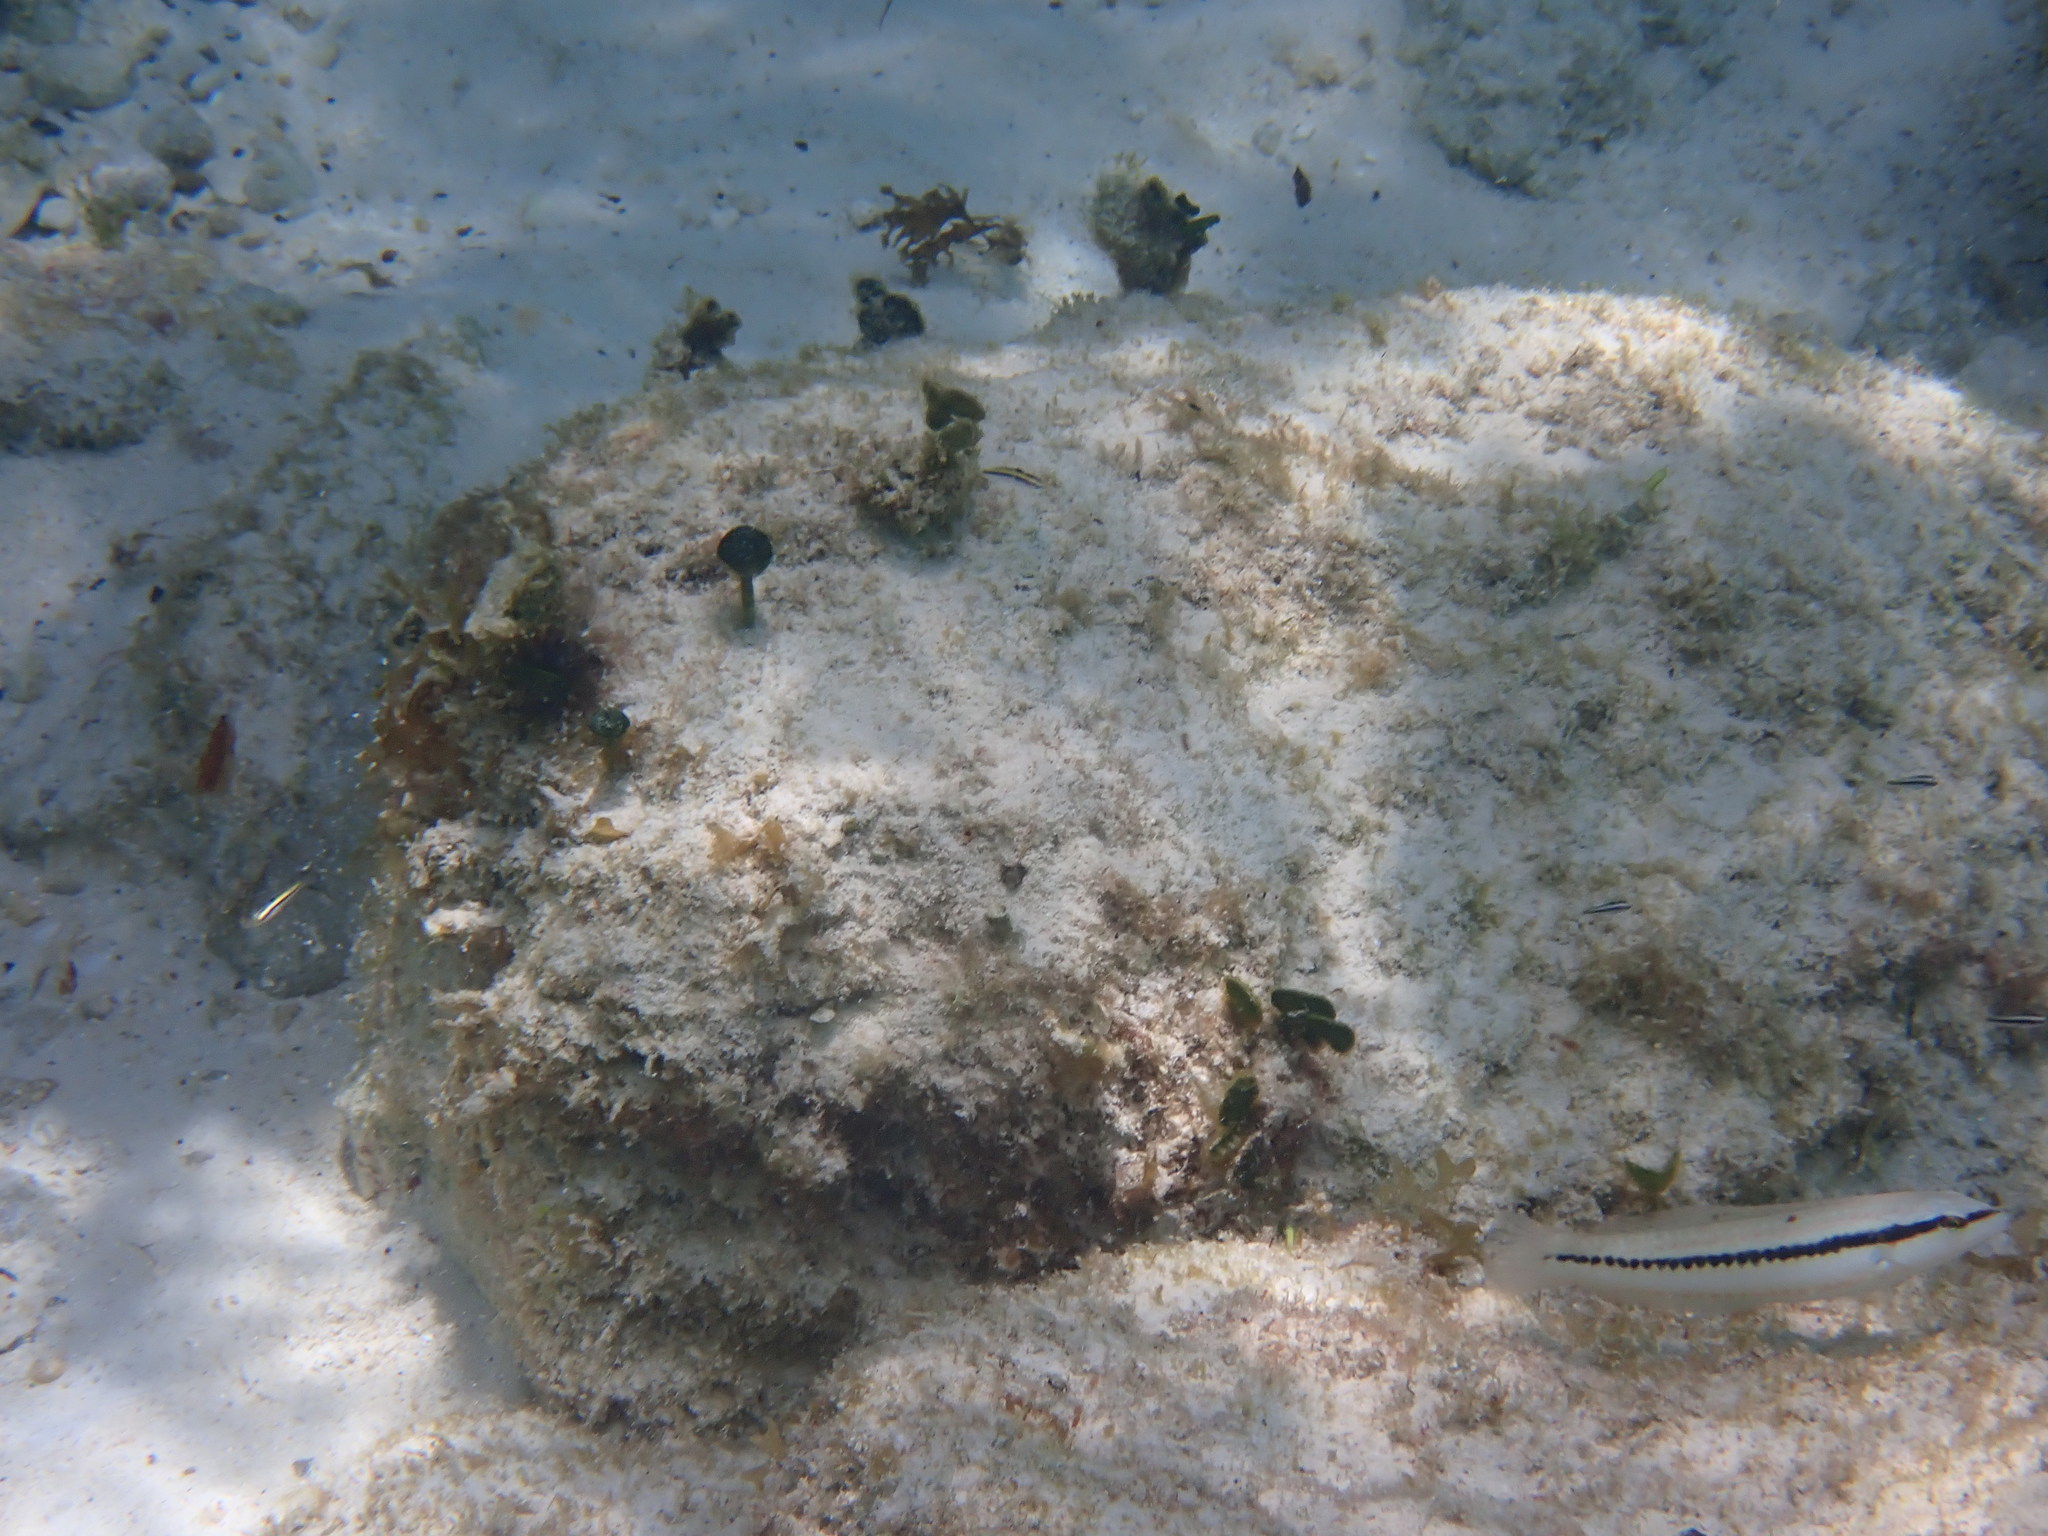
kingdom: Animalia
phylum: Chordata
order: Perciformes
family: Labridae
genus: Halichoeres
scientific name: Halichoeres bivittatus
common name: Slippery dick
